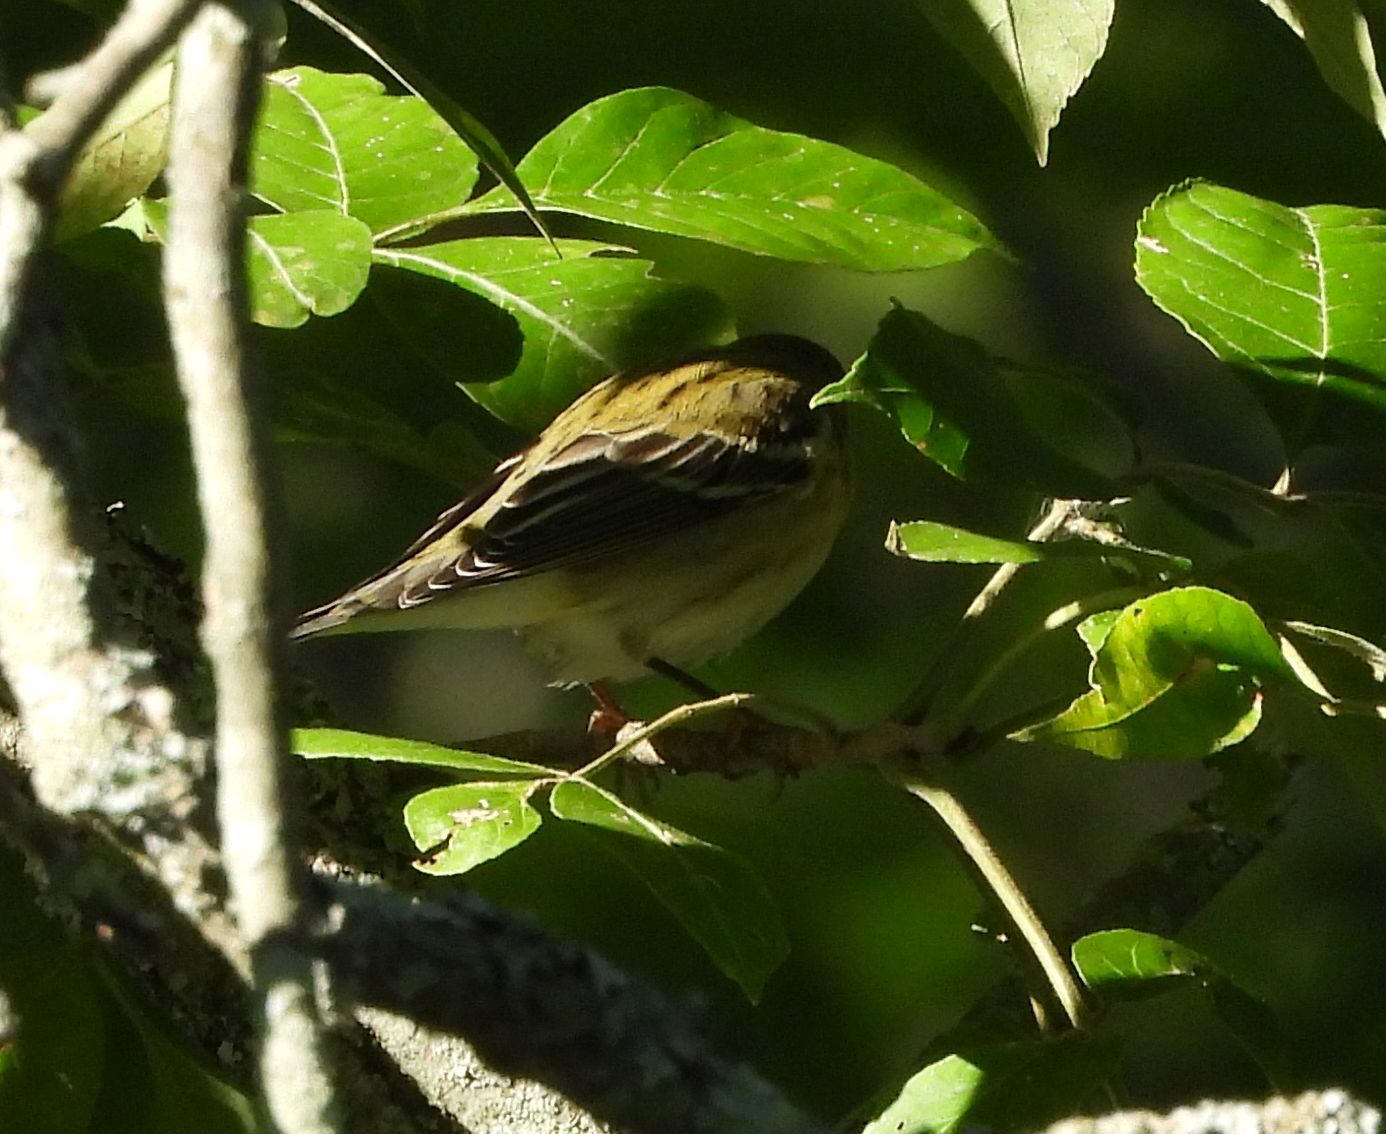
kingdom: Animalia
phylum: Chordata
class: Aves
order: Passeriformes
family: Parulidae
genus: Setophaga
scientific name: Setophaga castanea
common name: Bay-breasted warbler
